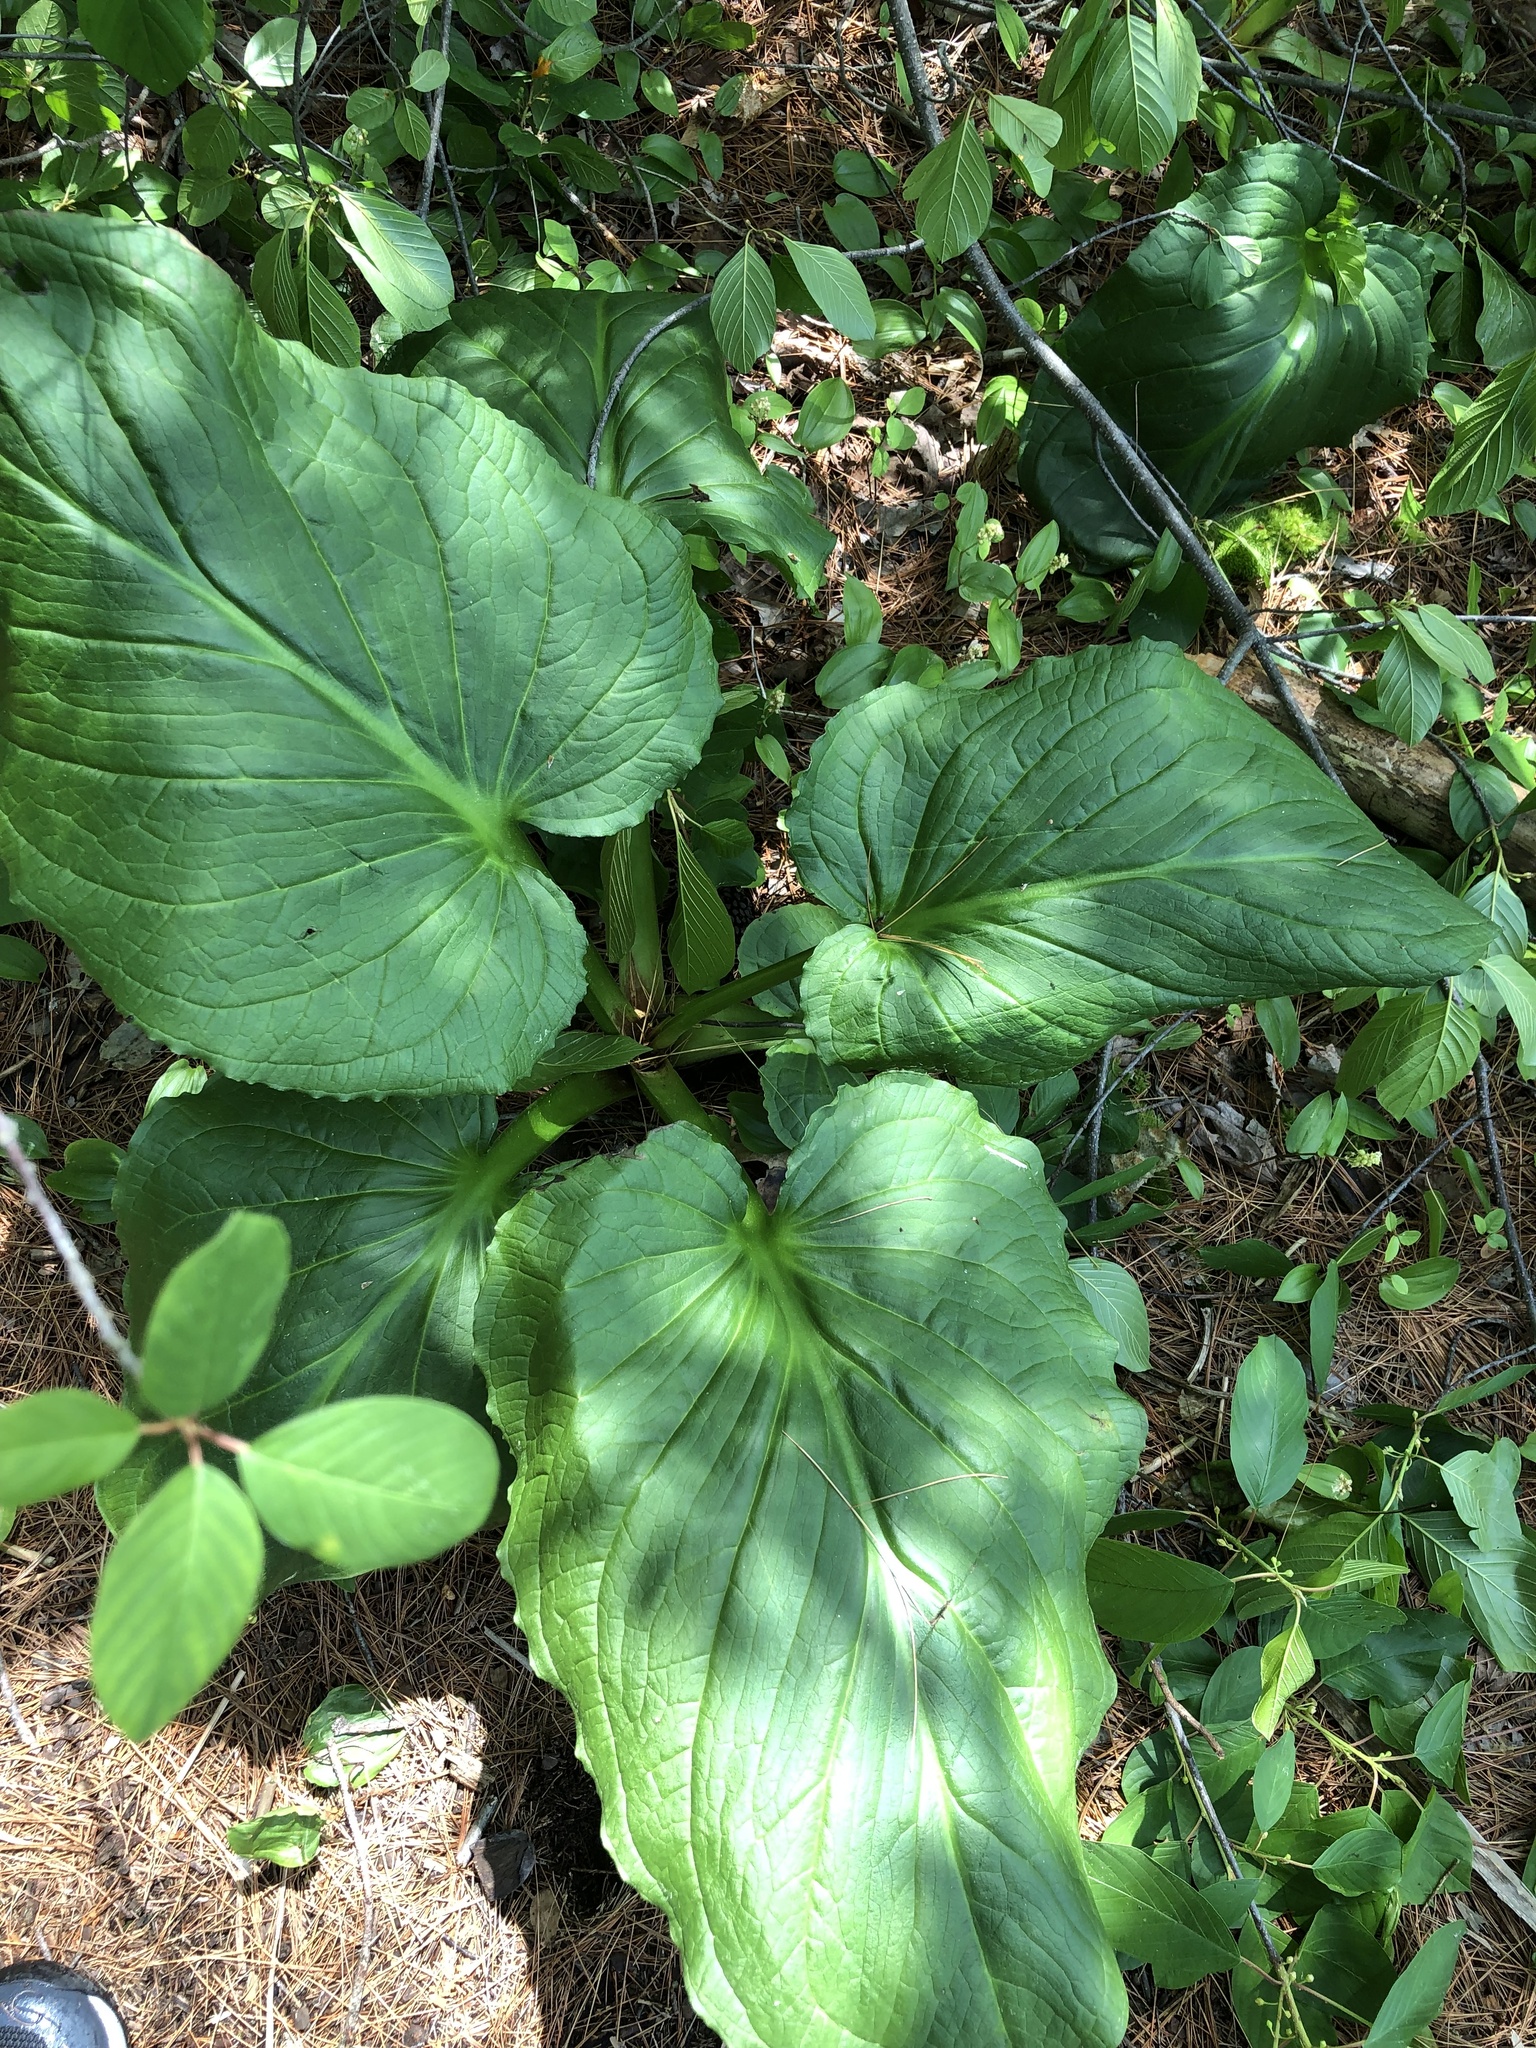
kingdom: Plantae
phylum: Tracheophyta
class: Liliopsida
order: Alismatales
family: Araceae
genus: Symplocarpus
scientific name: Symplocarpus foetidus
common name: Eastern skunk cabbage
